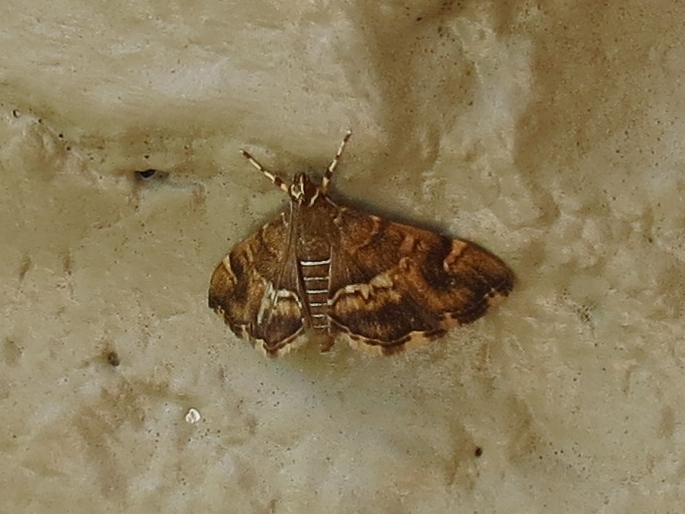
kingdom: Animalia
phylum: Arthropoda
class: Insecta
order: Lepidoptera
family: Crambidae
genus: Hymenia
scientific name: Hymenia perspectalis
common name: Spotted beet webworm
